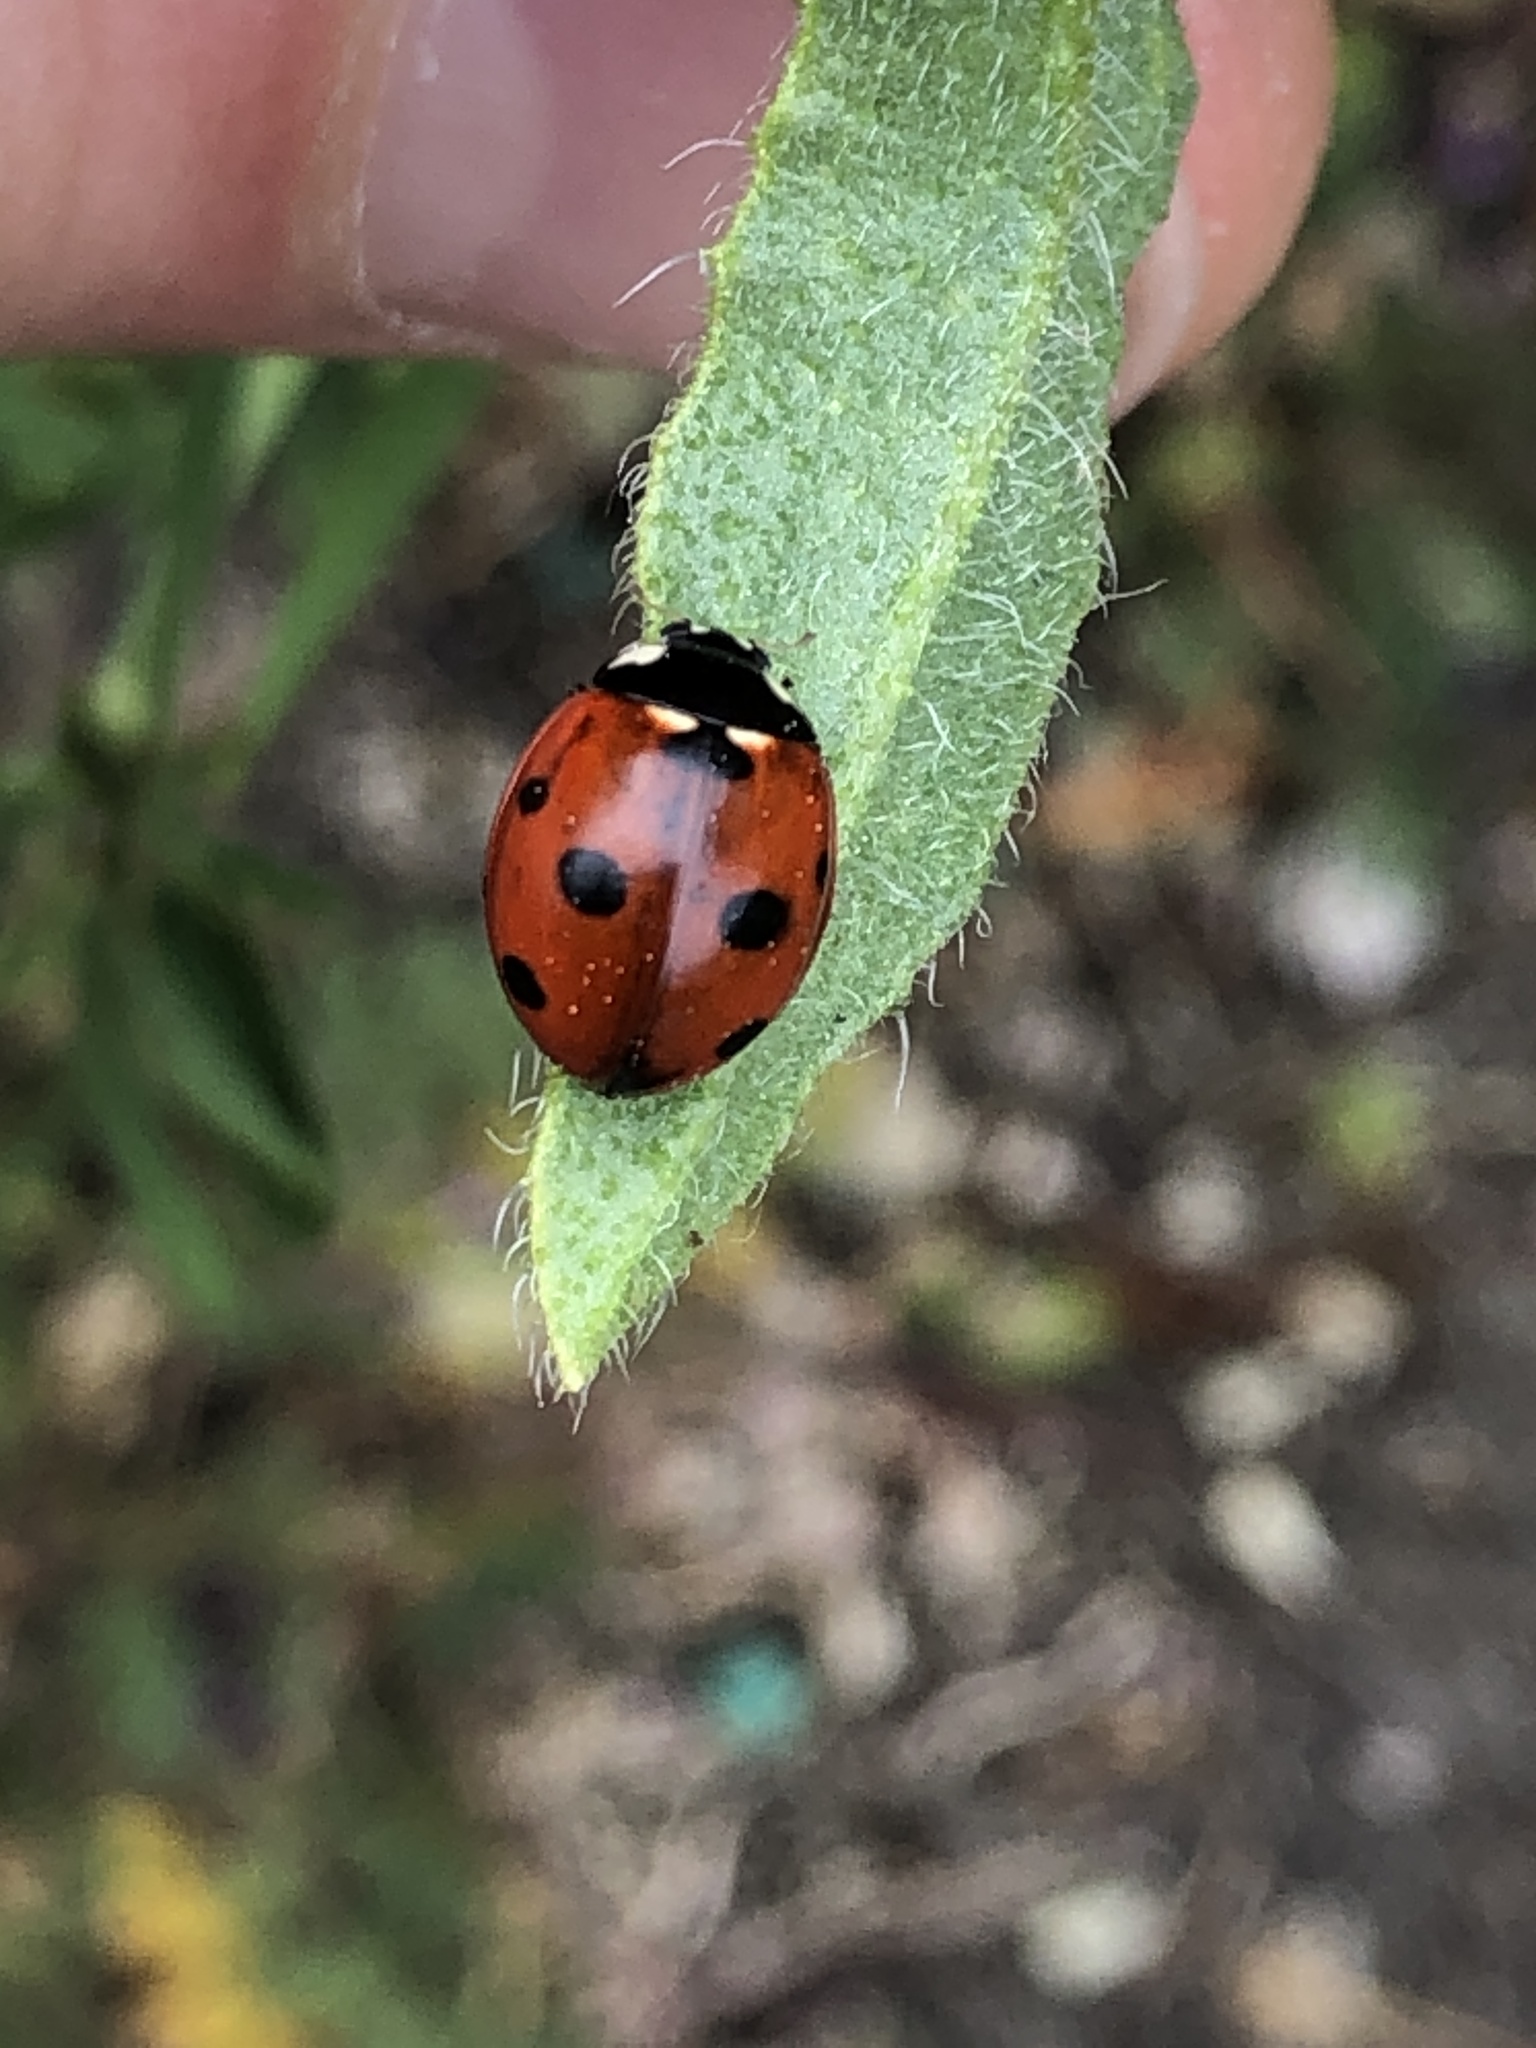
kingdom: Animalia
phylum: Arthropoda
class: Insecta
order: Coleoptera
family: Coccinellidae
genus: Coccinella
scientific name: Coccinella septempunctata
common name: Sevenspotted lady beetle
